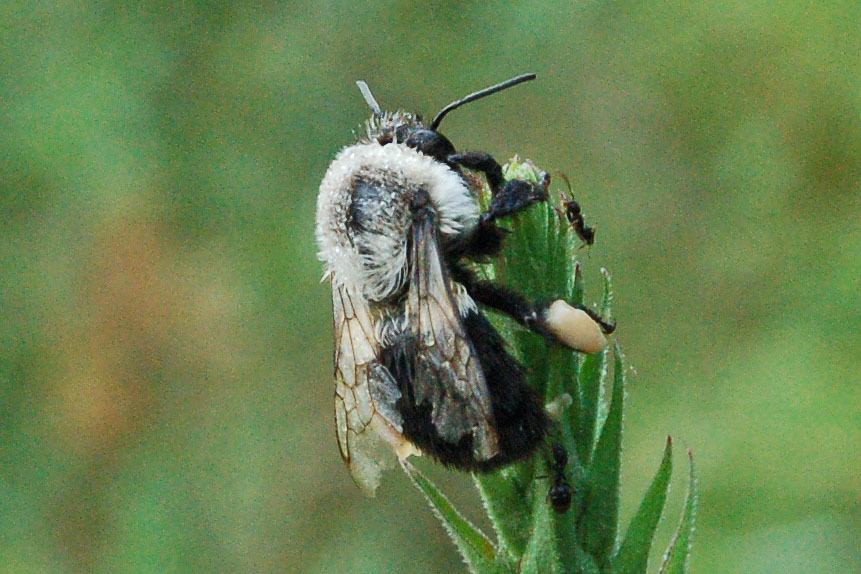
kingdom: Animalia
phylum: Arthropoda
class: Insecta
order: Hymenoptera
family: Apidae
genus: Bombus
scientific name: Bombus impatiens
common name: Common eastern bumble bee
